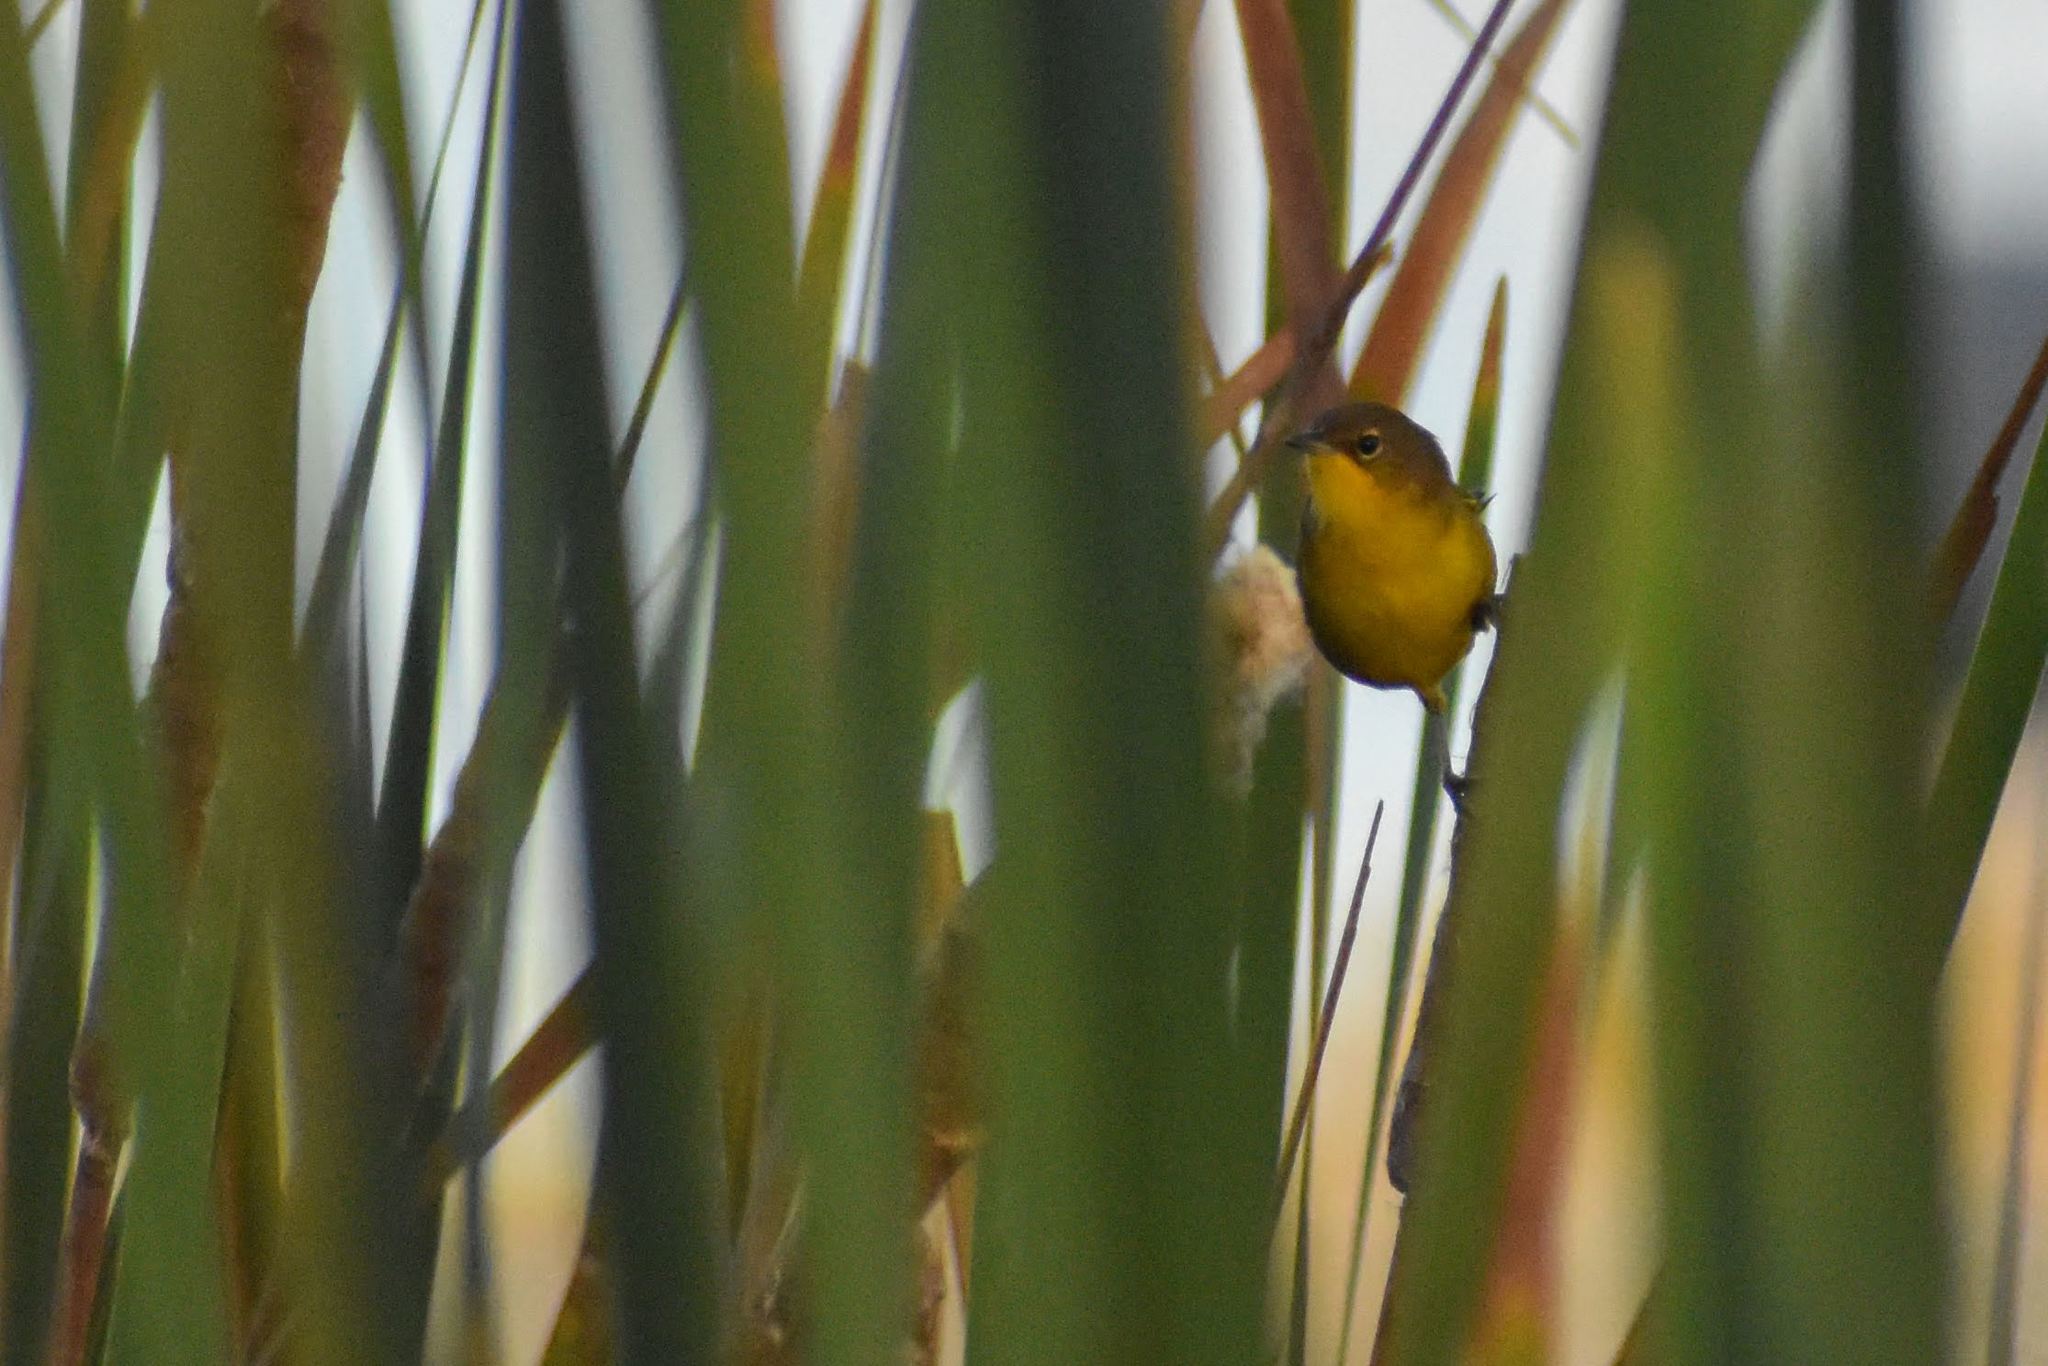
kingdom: Animalia
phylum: Chordata
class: Aves
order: Passeriformes
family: Parulidae
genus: Geothlypis
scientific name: Geothlypis velata
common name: Southern yellowthroat
